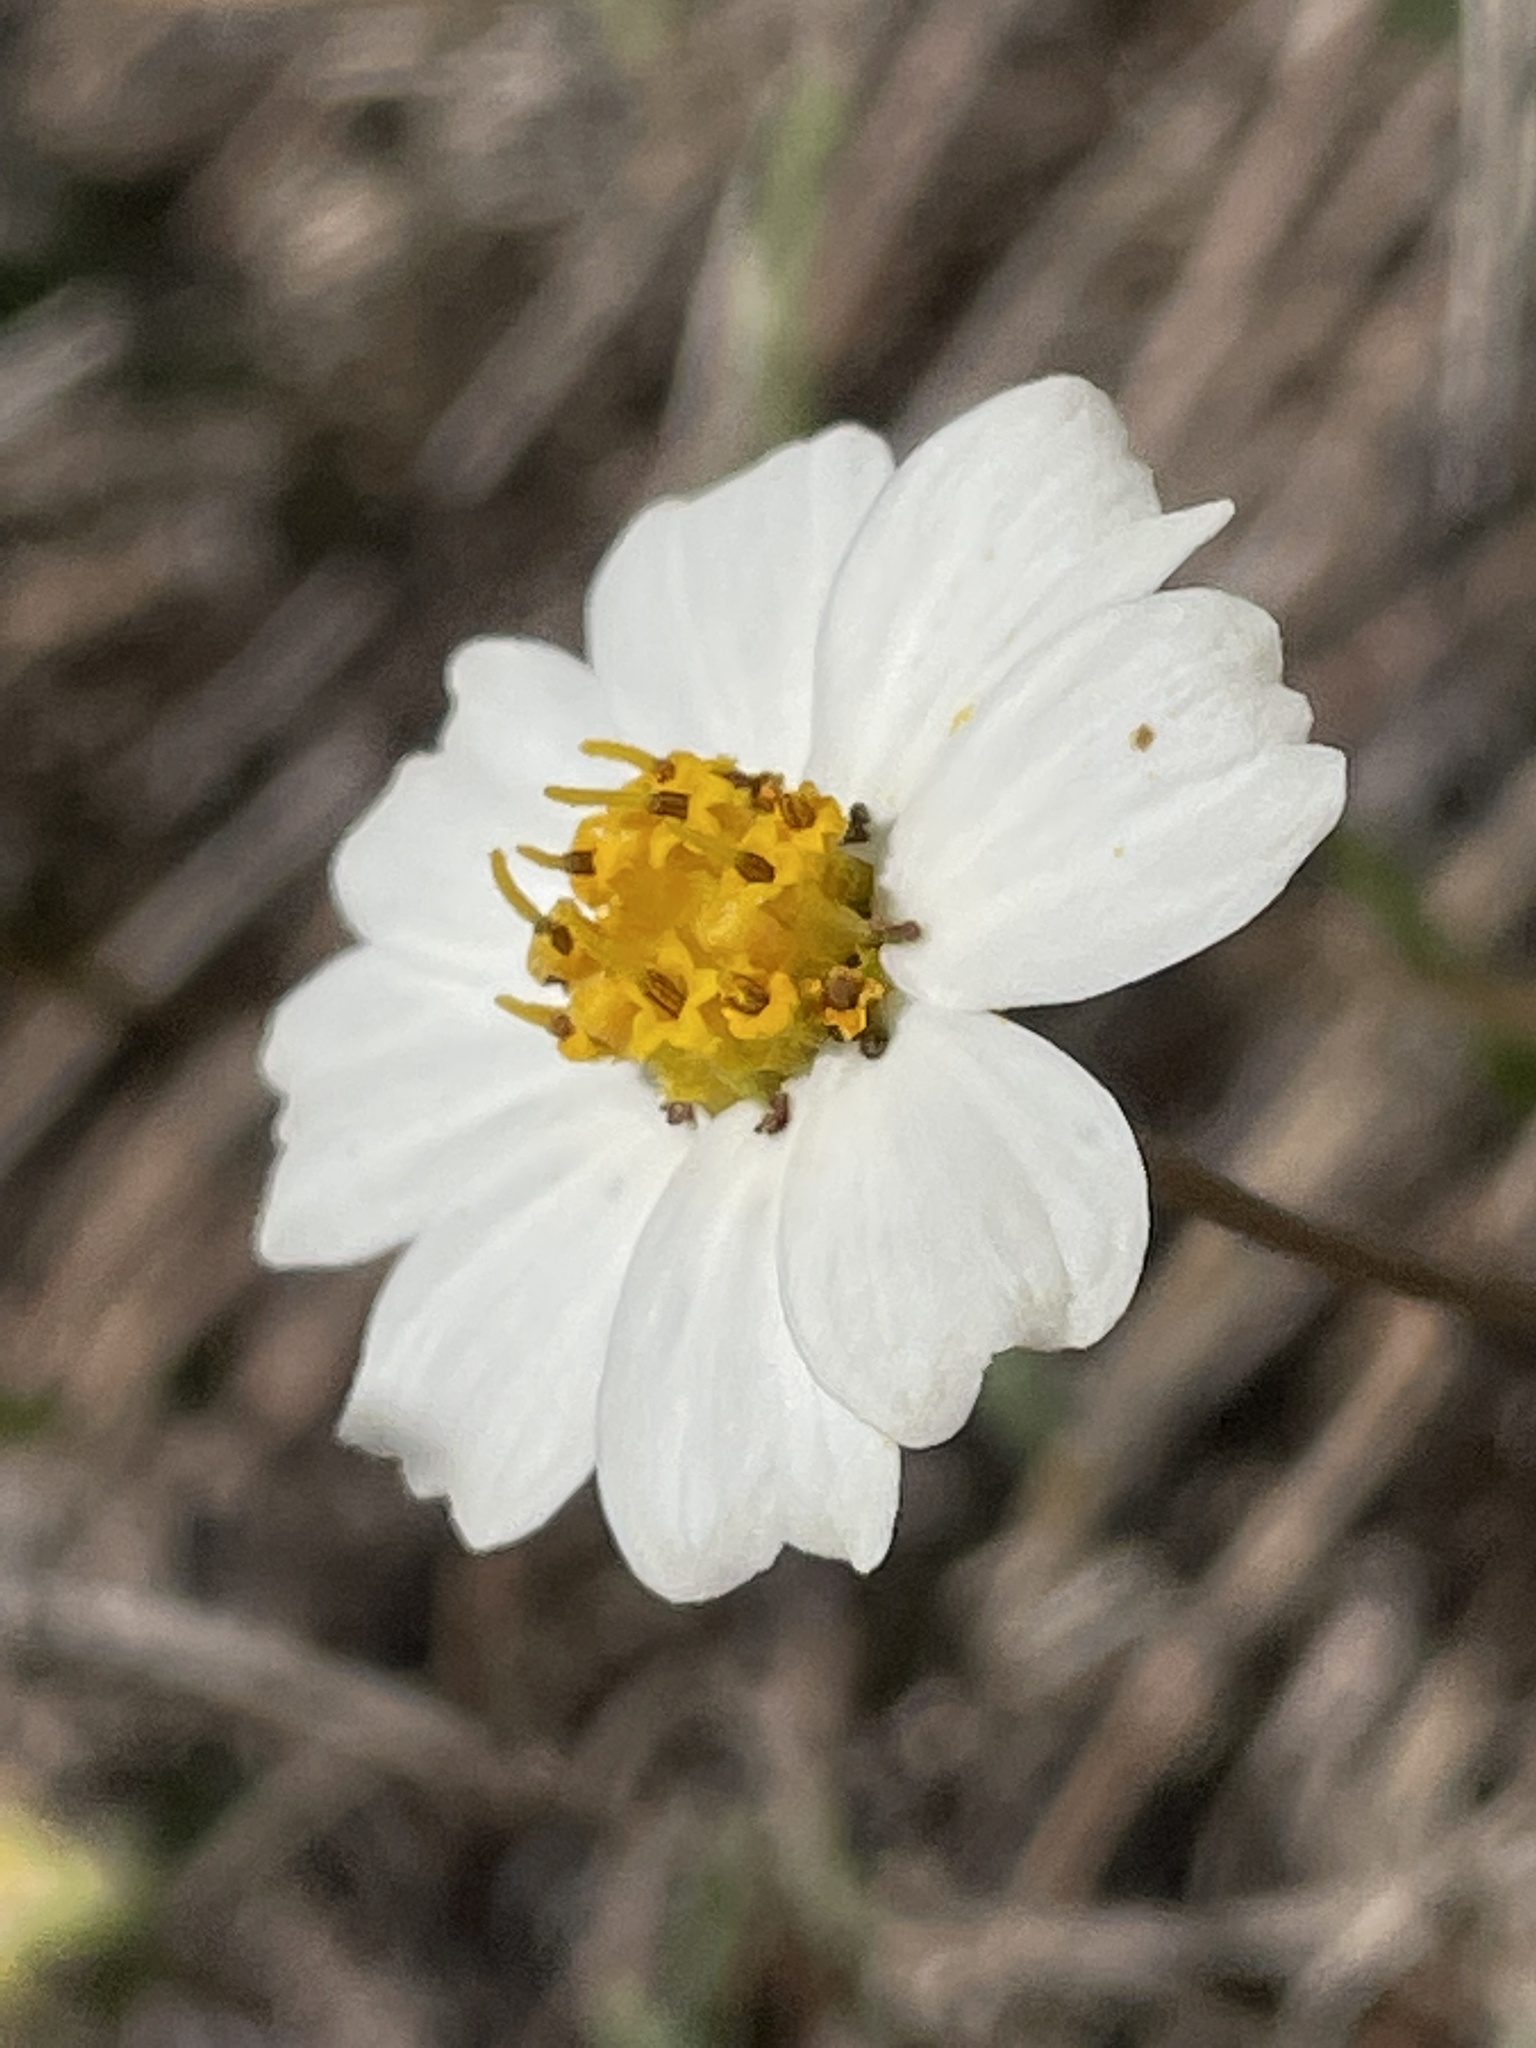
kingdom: Plantae
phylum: Tracheophyta
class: Magnoliopsida
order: Asterales
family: Asteraceae
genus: Melampodium
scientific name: Melampodium leucanthum
